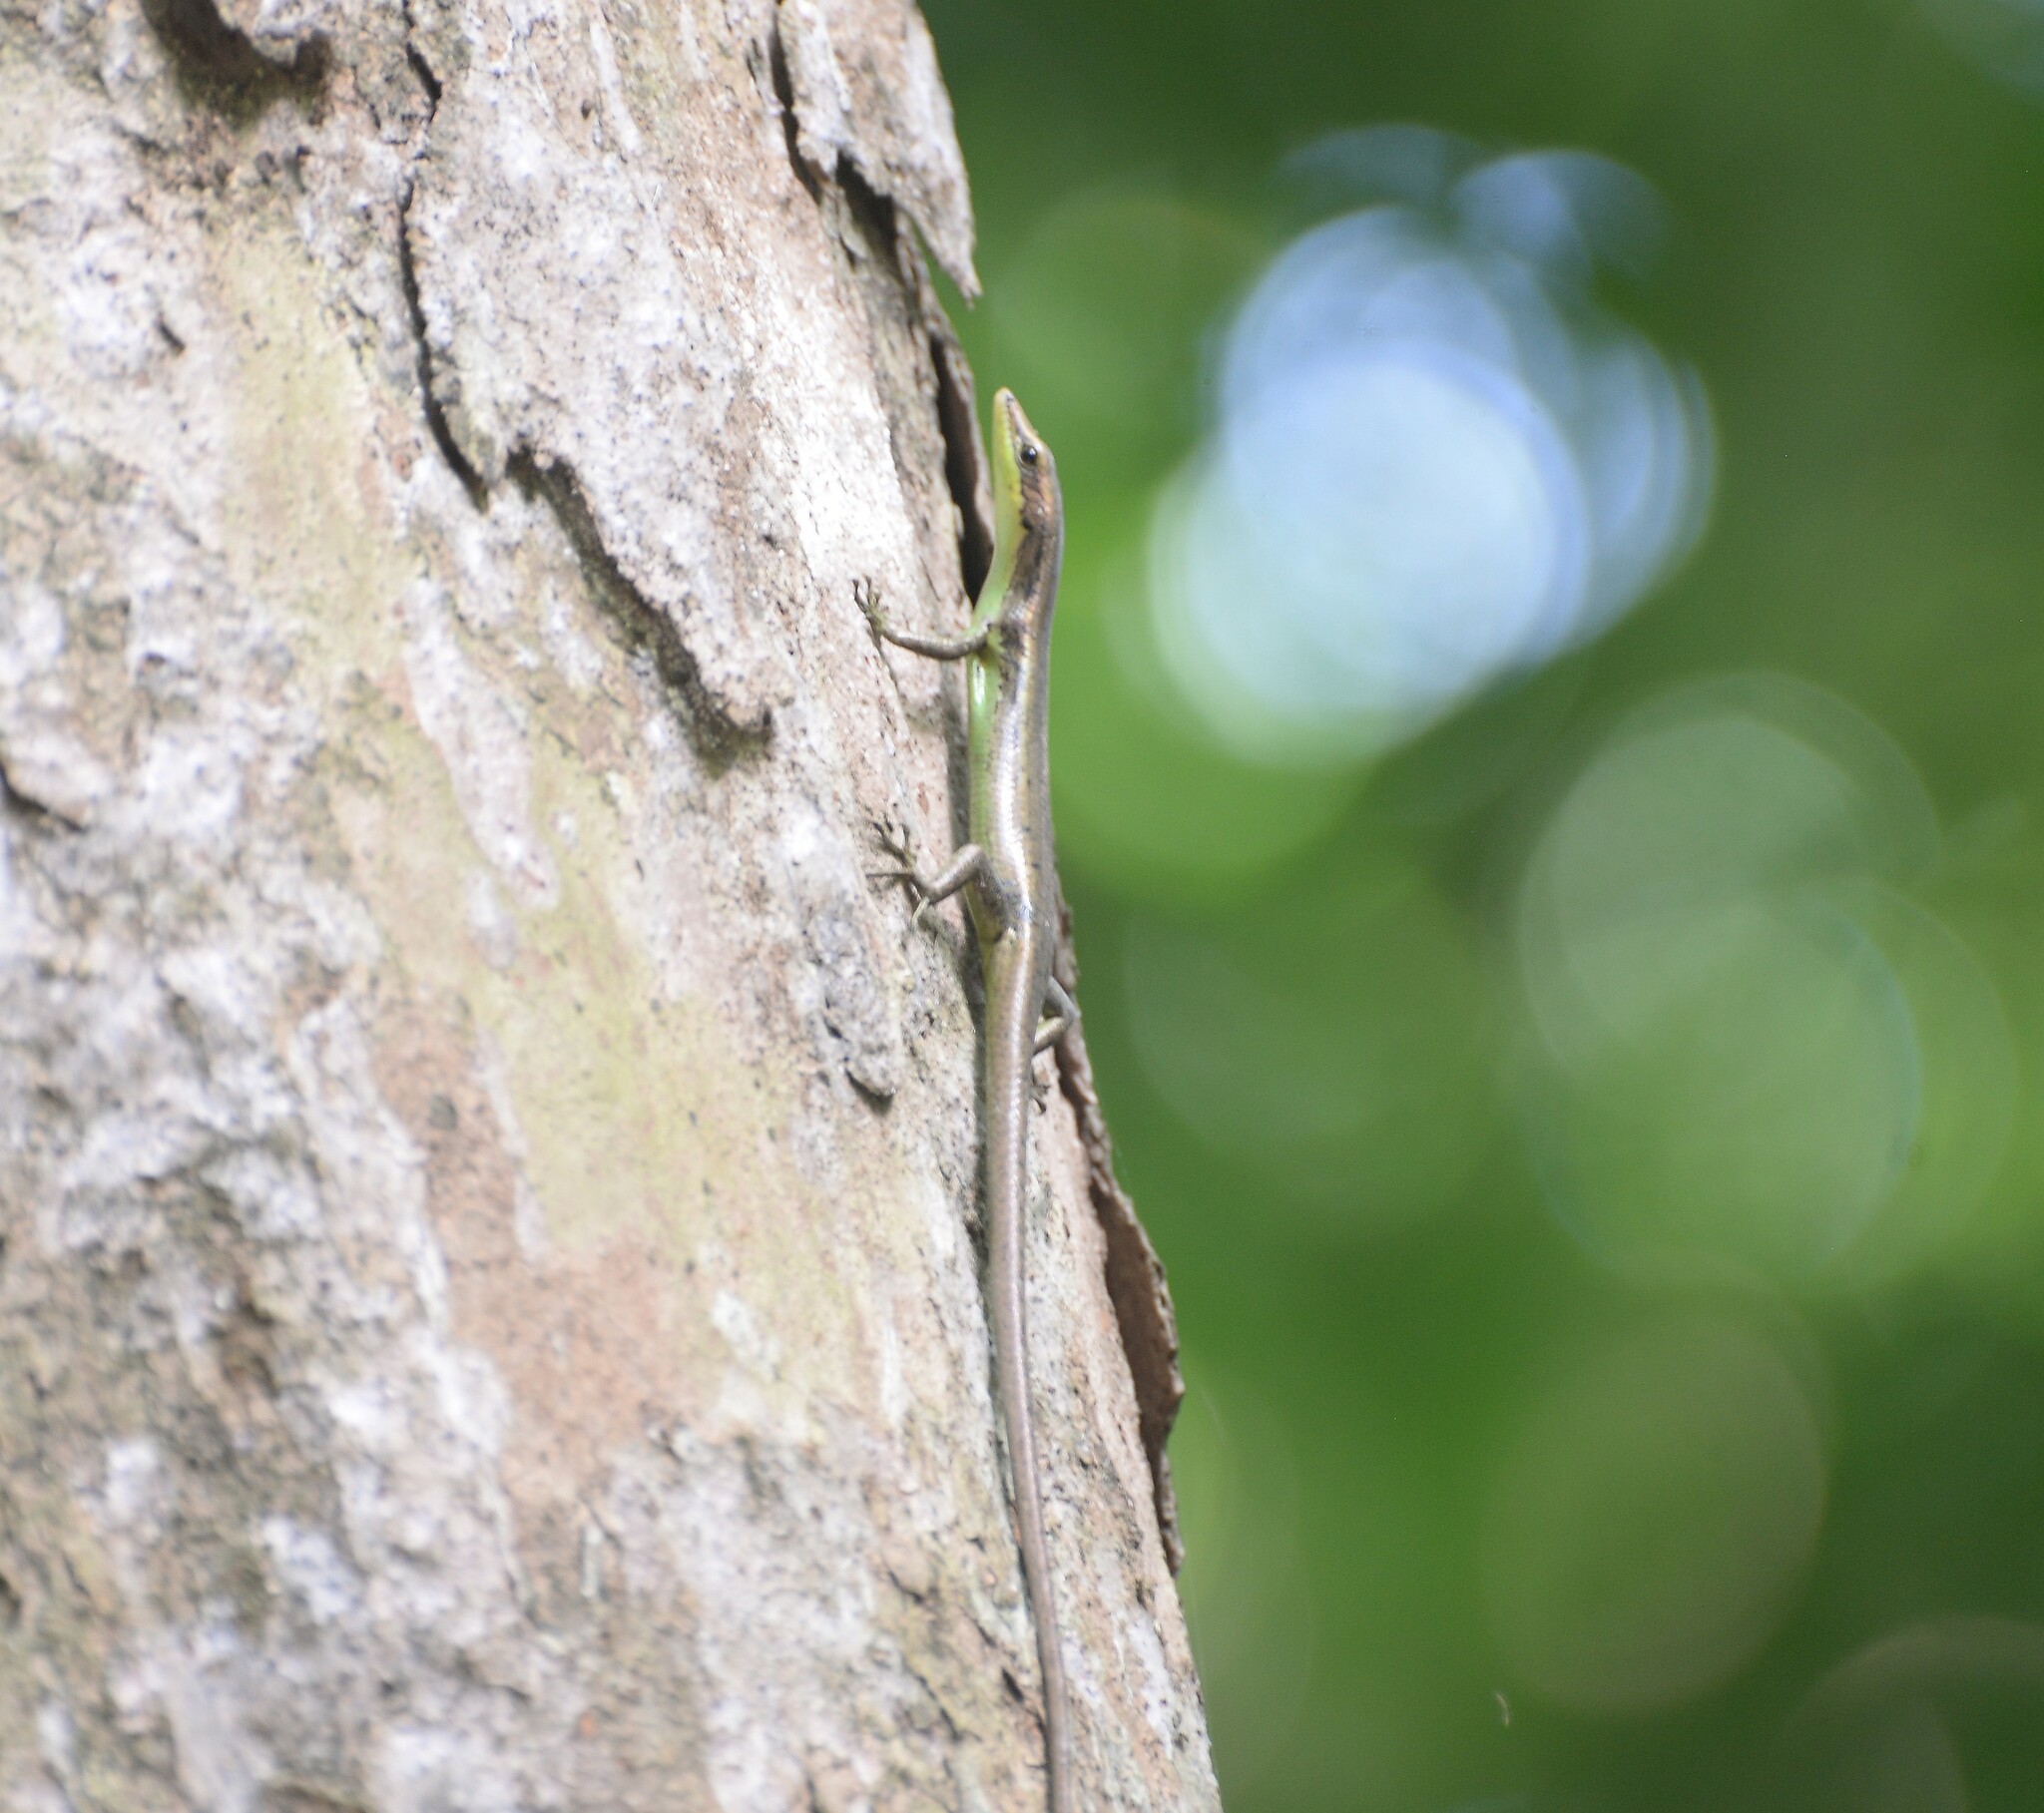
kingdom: Animalia
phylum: Chordata
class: Squamata
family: Scincidae
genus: Emoia
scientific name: Emoia cyanogaster
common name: Teal emo skink
